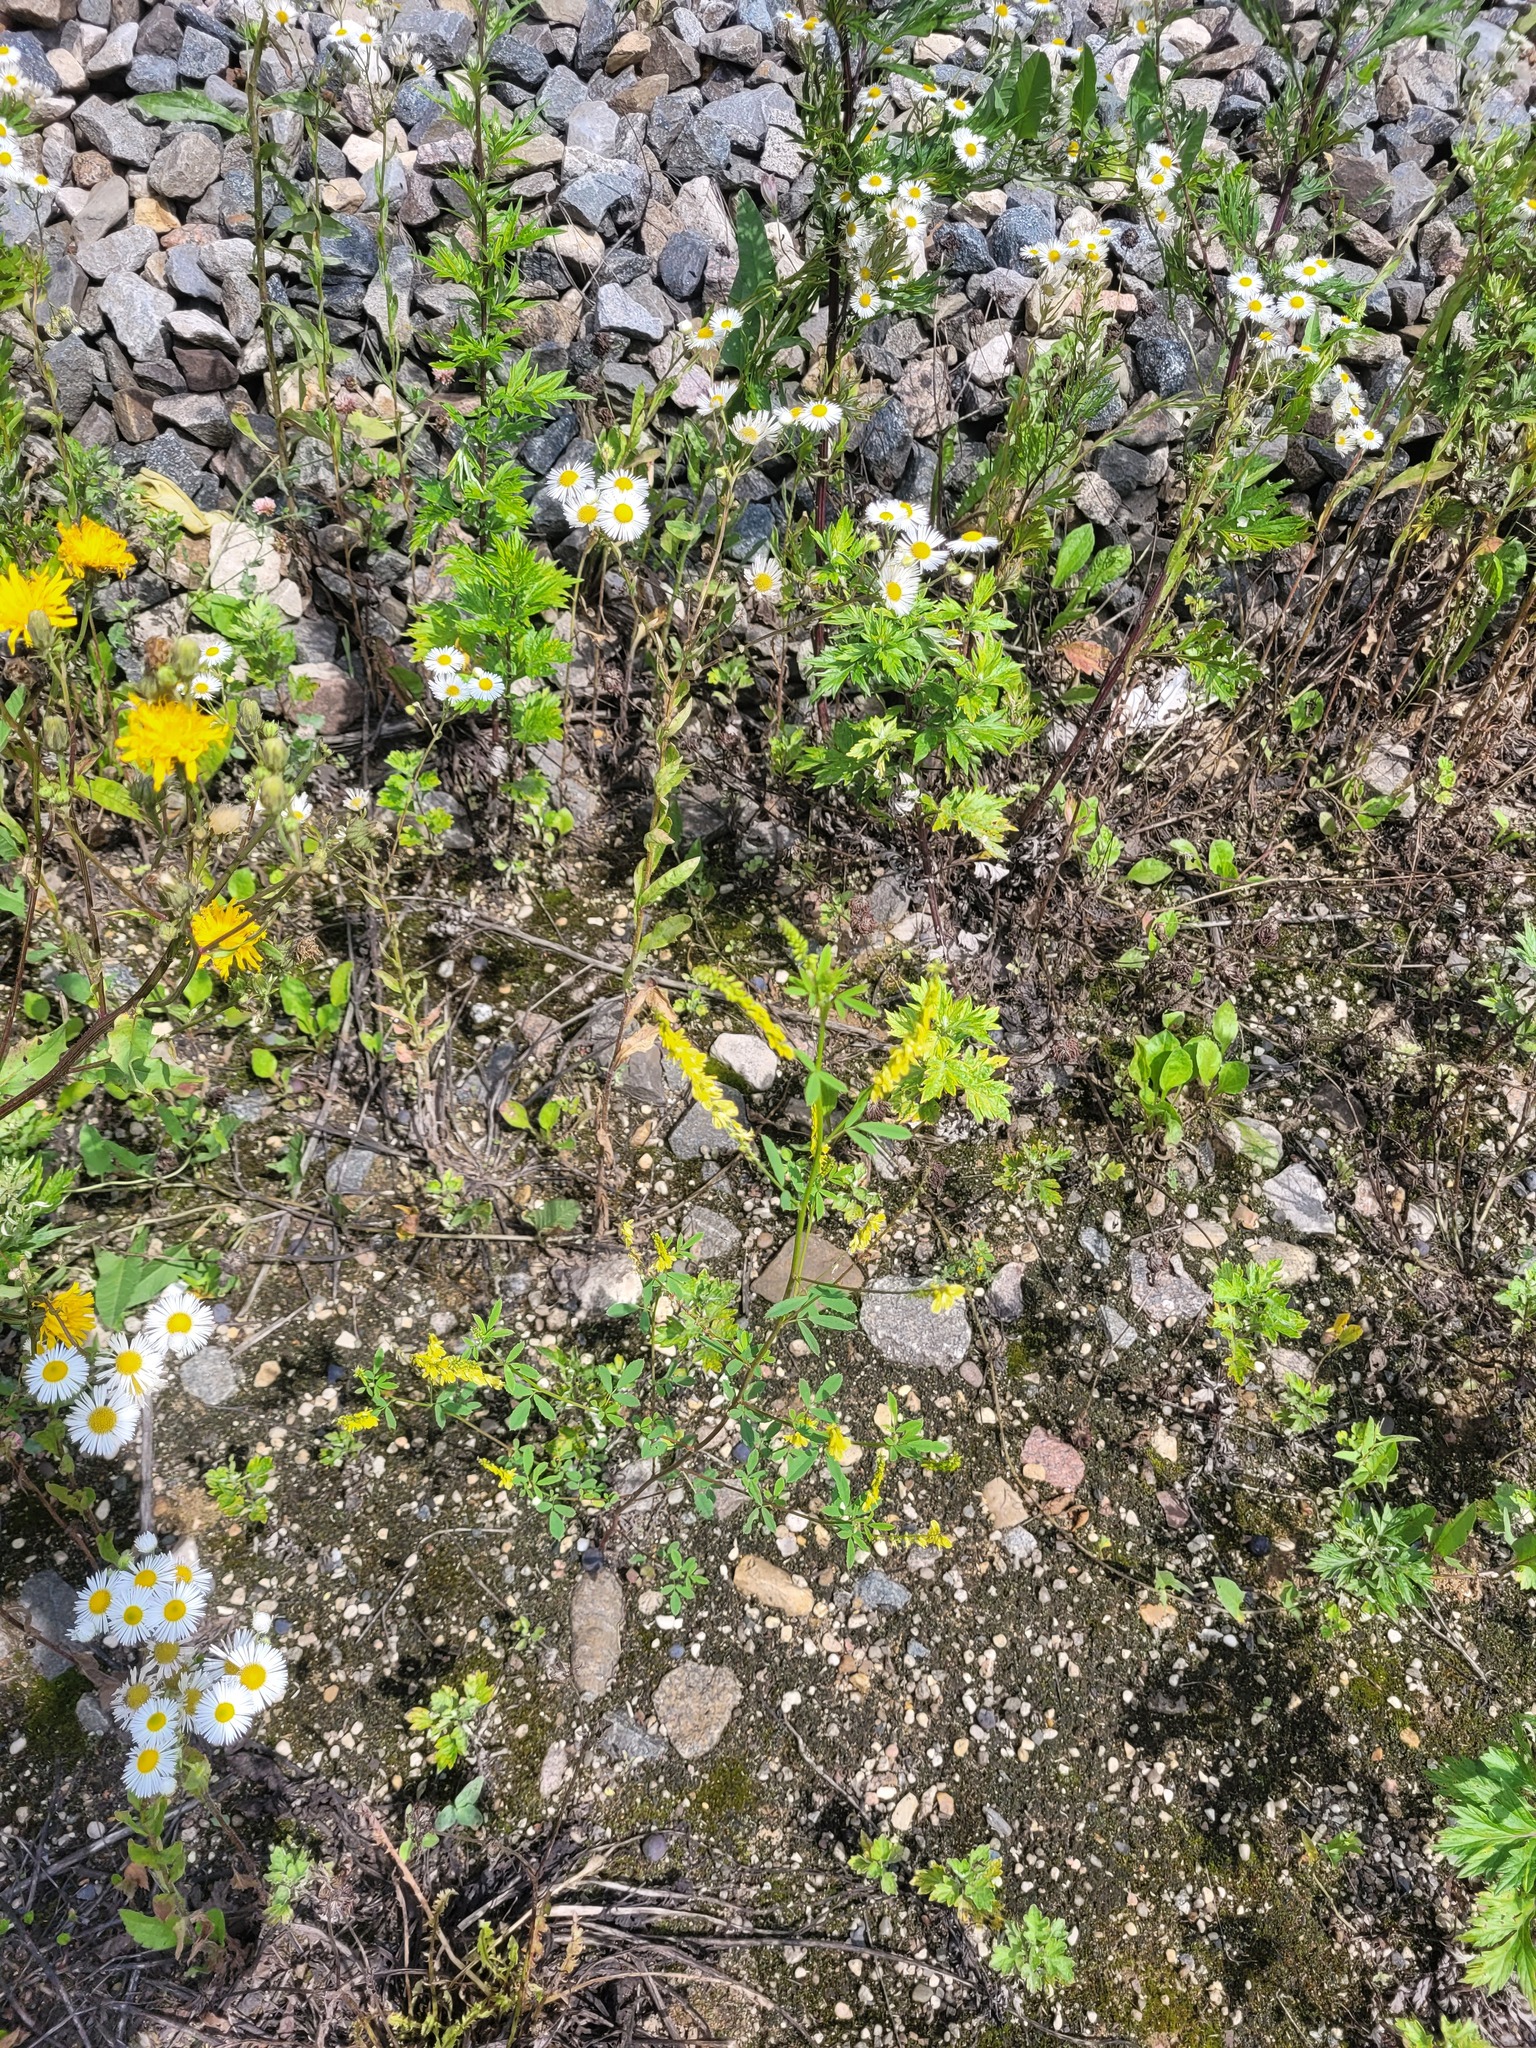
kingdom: Plantae
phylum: Tracheophyta
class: Magnoliopsida
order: Fabales
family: Fabaceae
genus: Melilotus
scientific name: Melilotus officinalis
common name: Sweetclover
